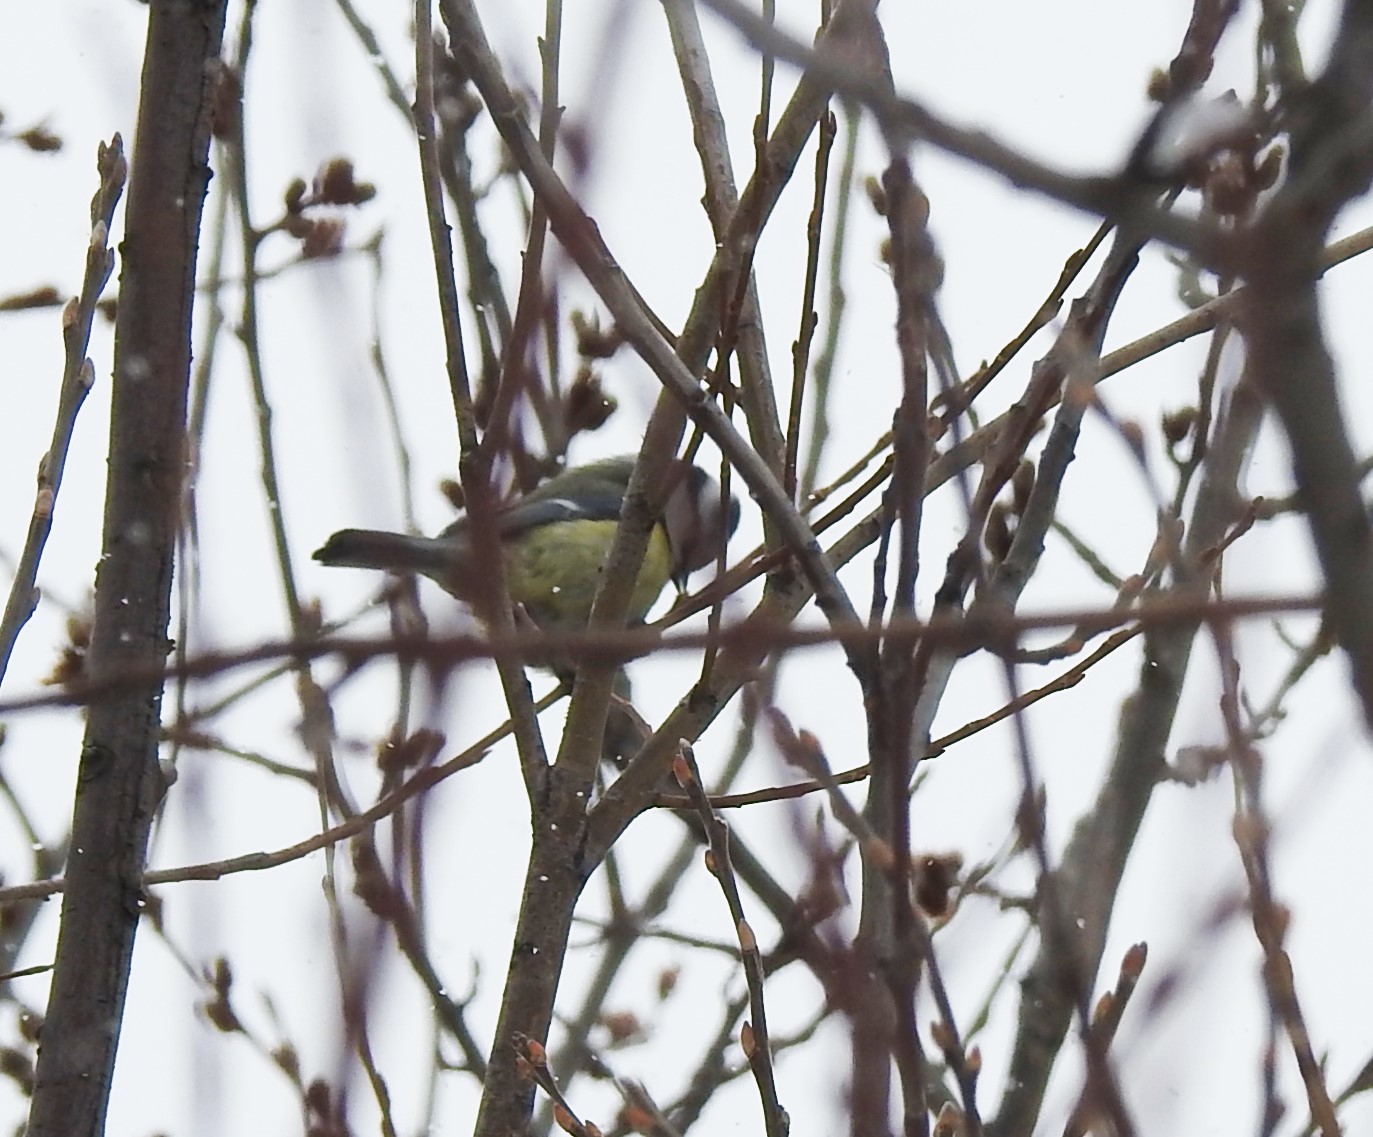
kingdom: Animalia
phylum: Chordata
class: Aves
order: Passeriformes
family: Paridae
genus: Cyanistes
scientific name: Cyanistes caeruleus
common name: Eurasian blue tit
